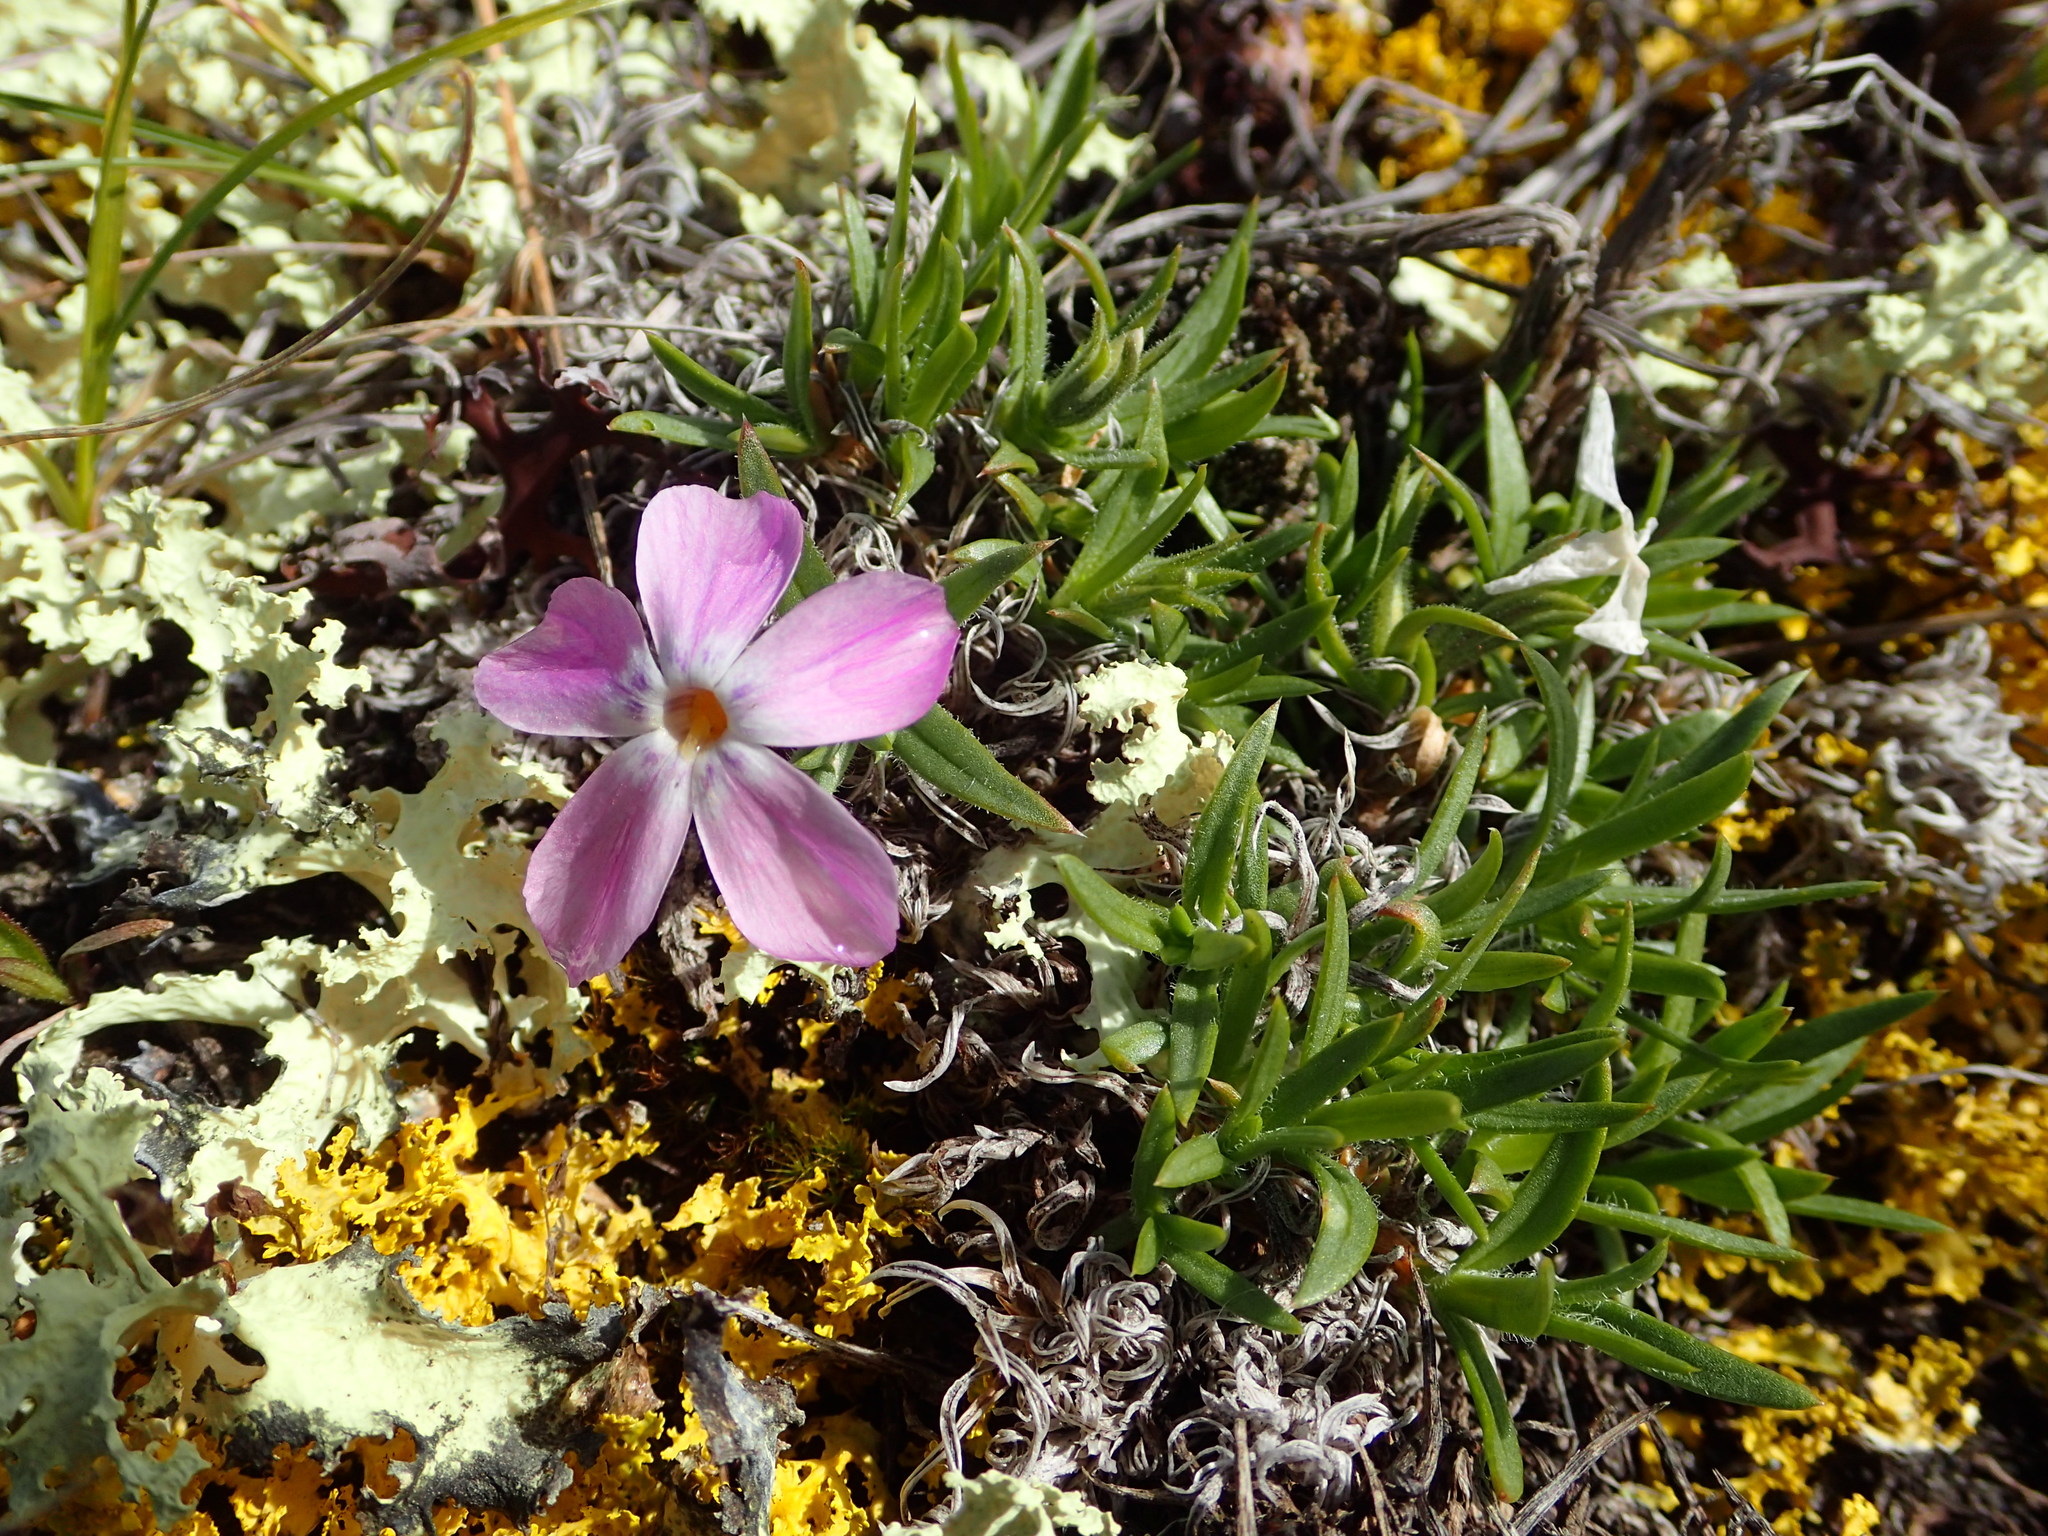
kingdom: Plantae
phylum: Tracheophyta
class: Magnoliopsida
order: Ericales
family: Polemoniaceae
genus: Phlox
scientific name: Phlox richardsonii
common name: Richardson's phlox
